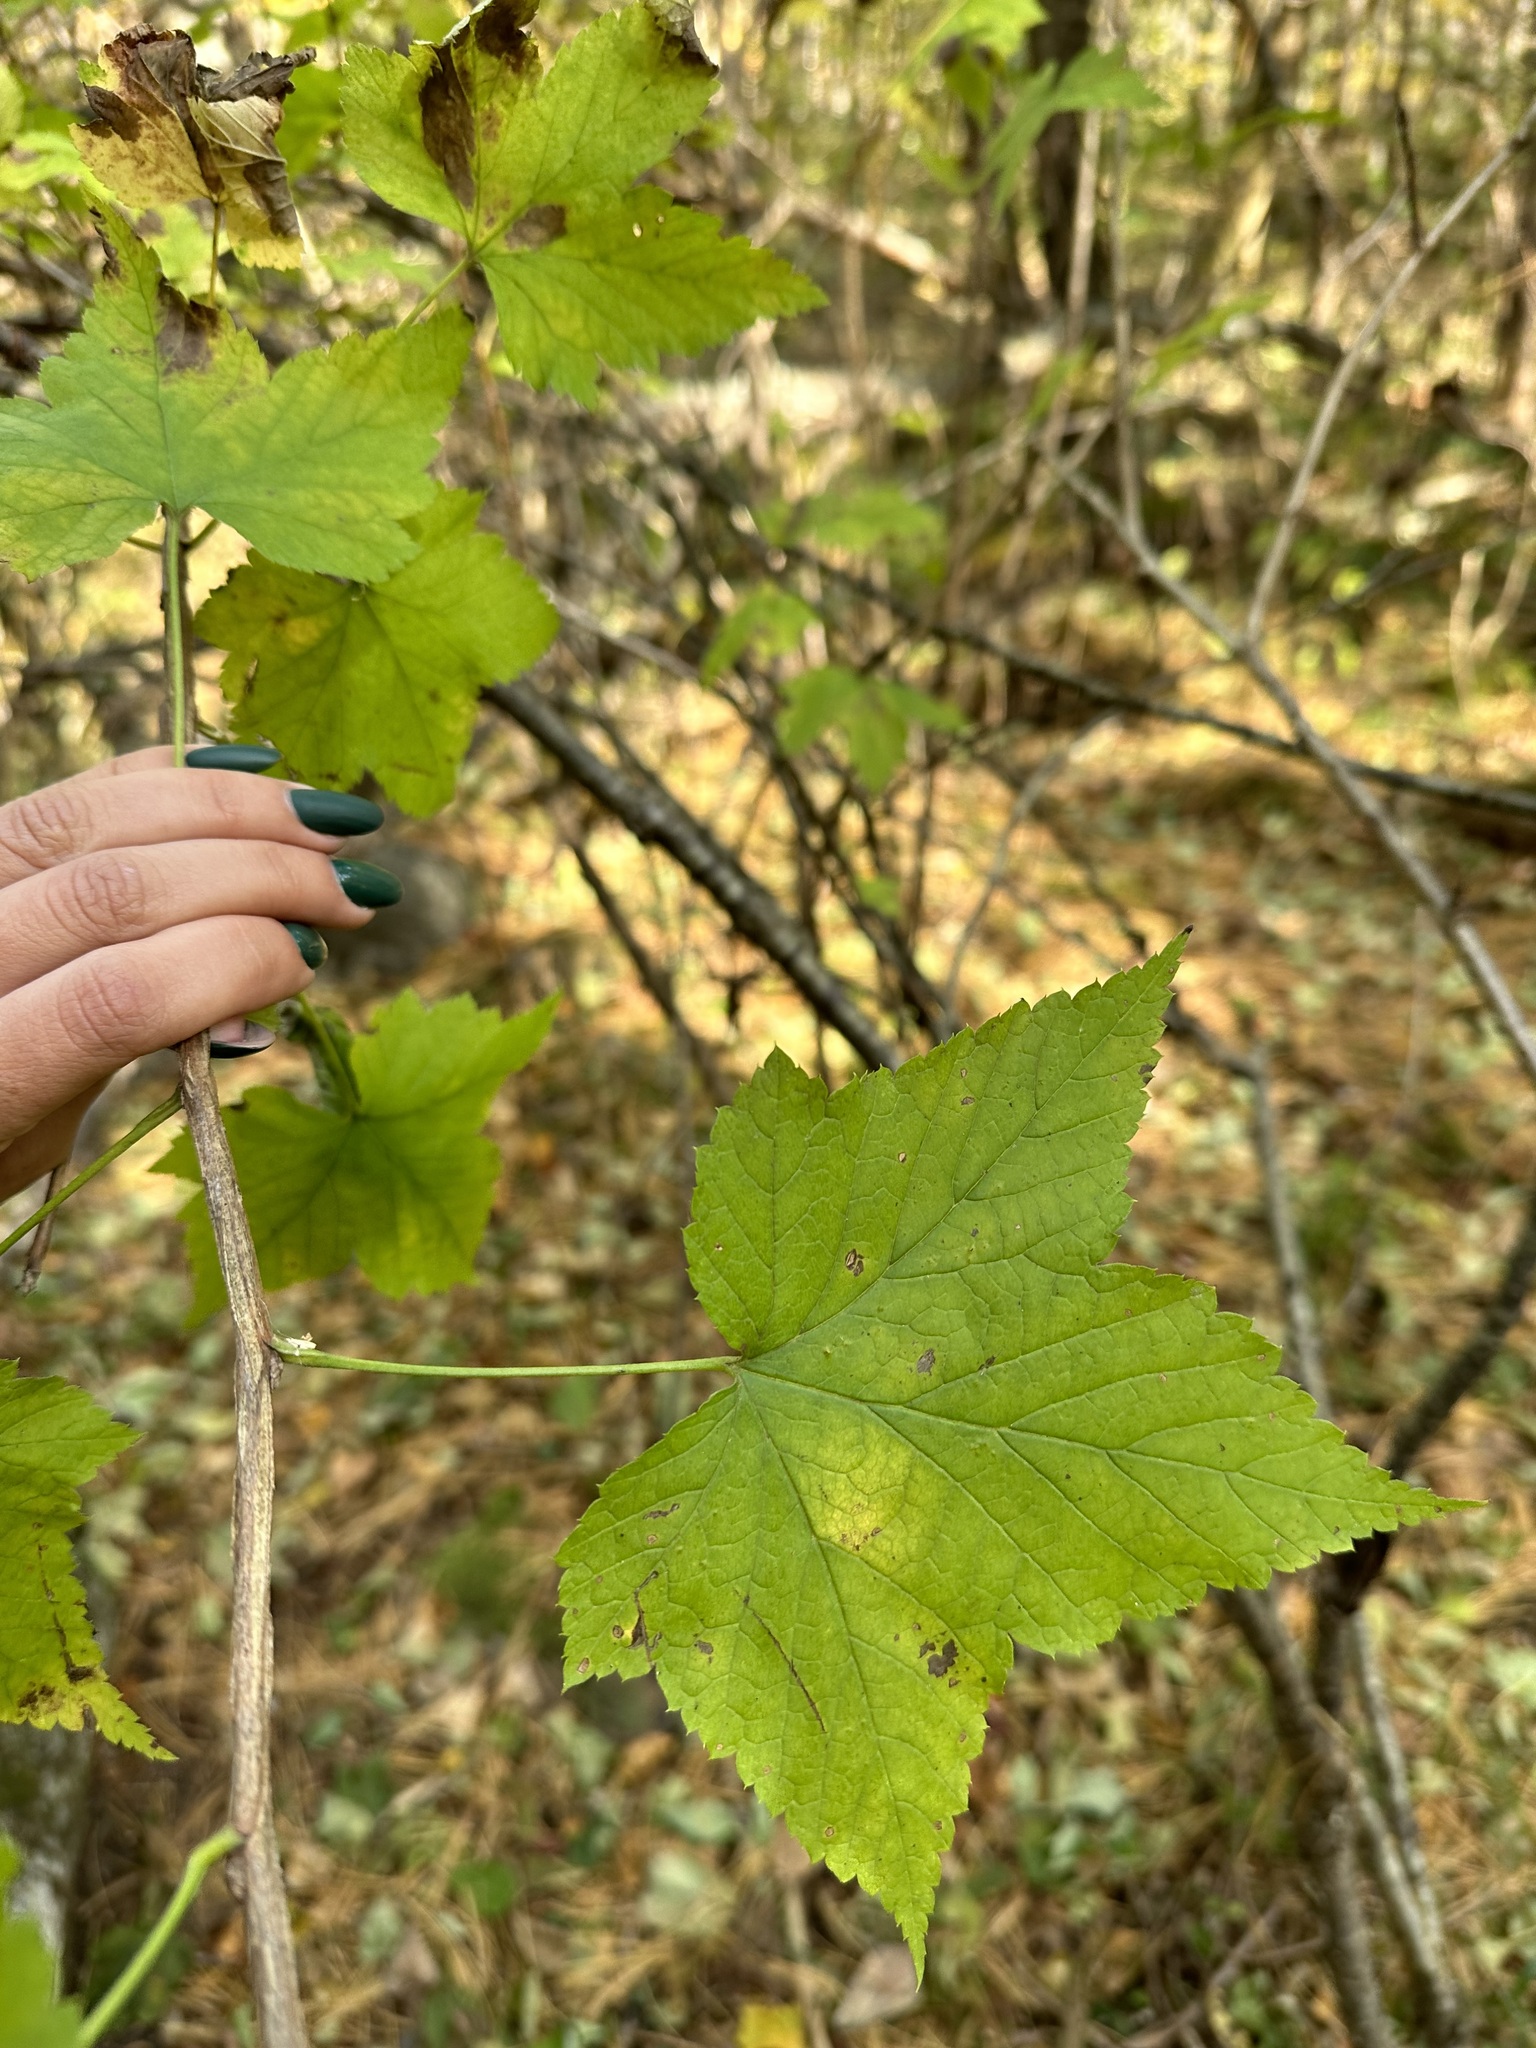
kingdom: Plantae
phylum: Tracheophyta
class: Magnoliopsida
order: Saxifragales
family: Grossulariaceae
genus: Ribes
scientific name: Ribes mandshuricum
